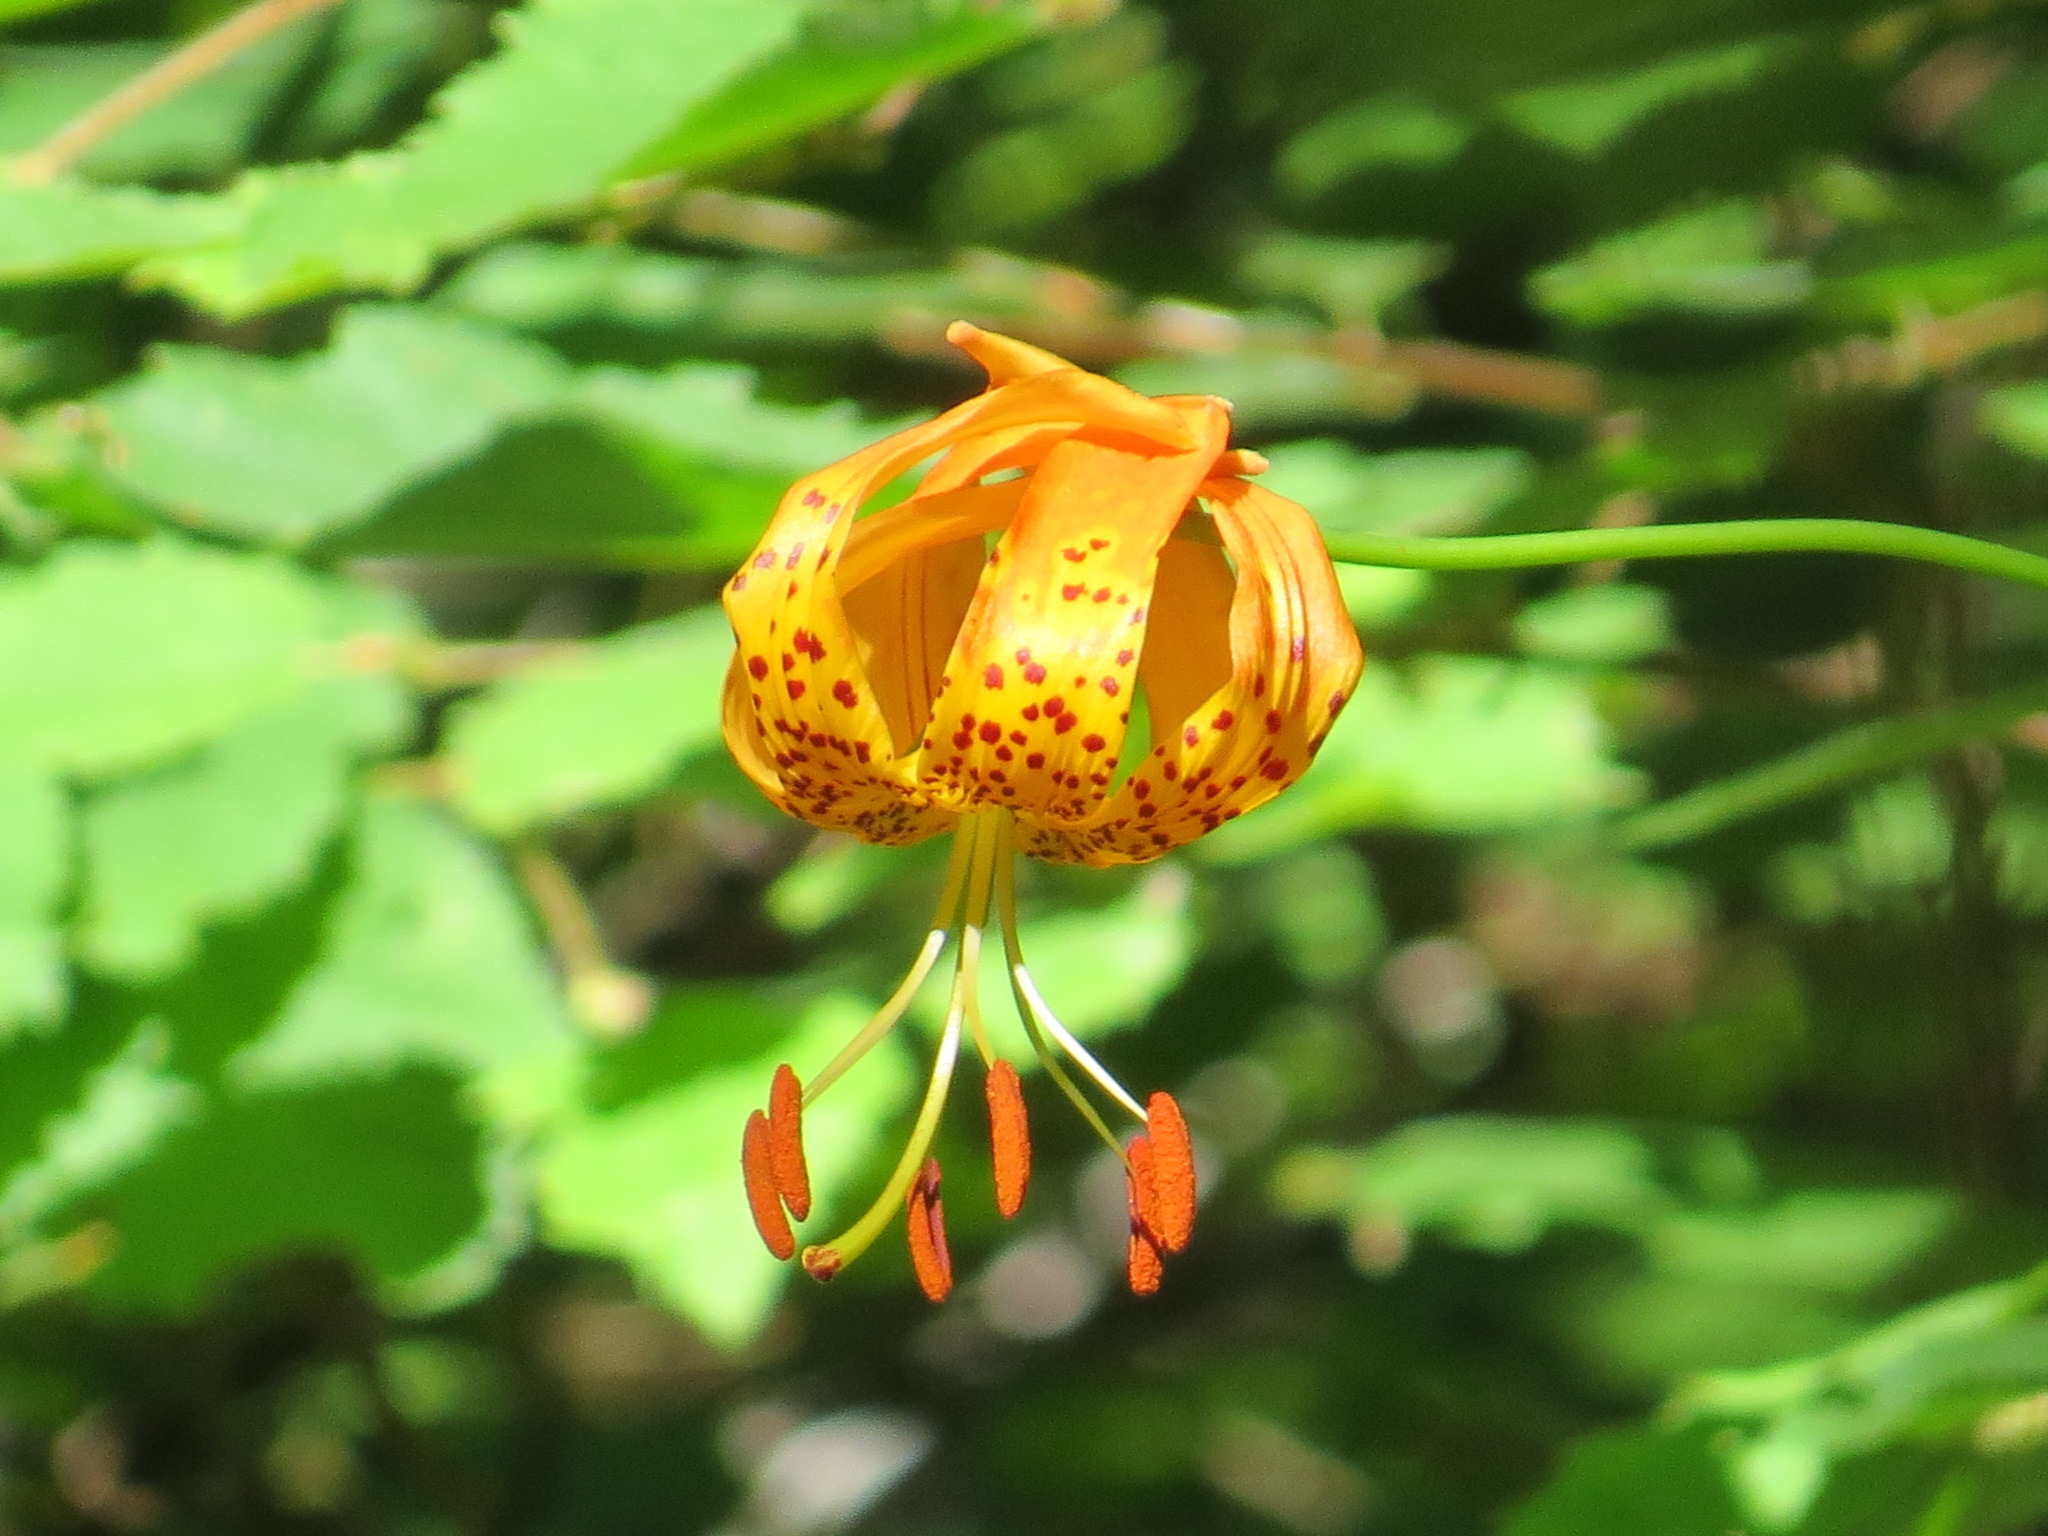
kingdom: Plantae
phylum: Tracheophyta
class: Liliopsida
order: Liliales
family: Liliaceae
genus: Lilium
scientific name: Lilium pardalinum
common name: Panther lily
